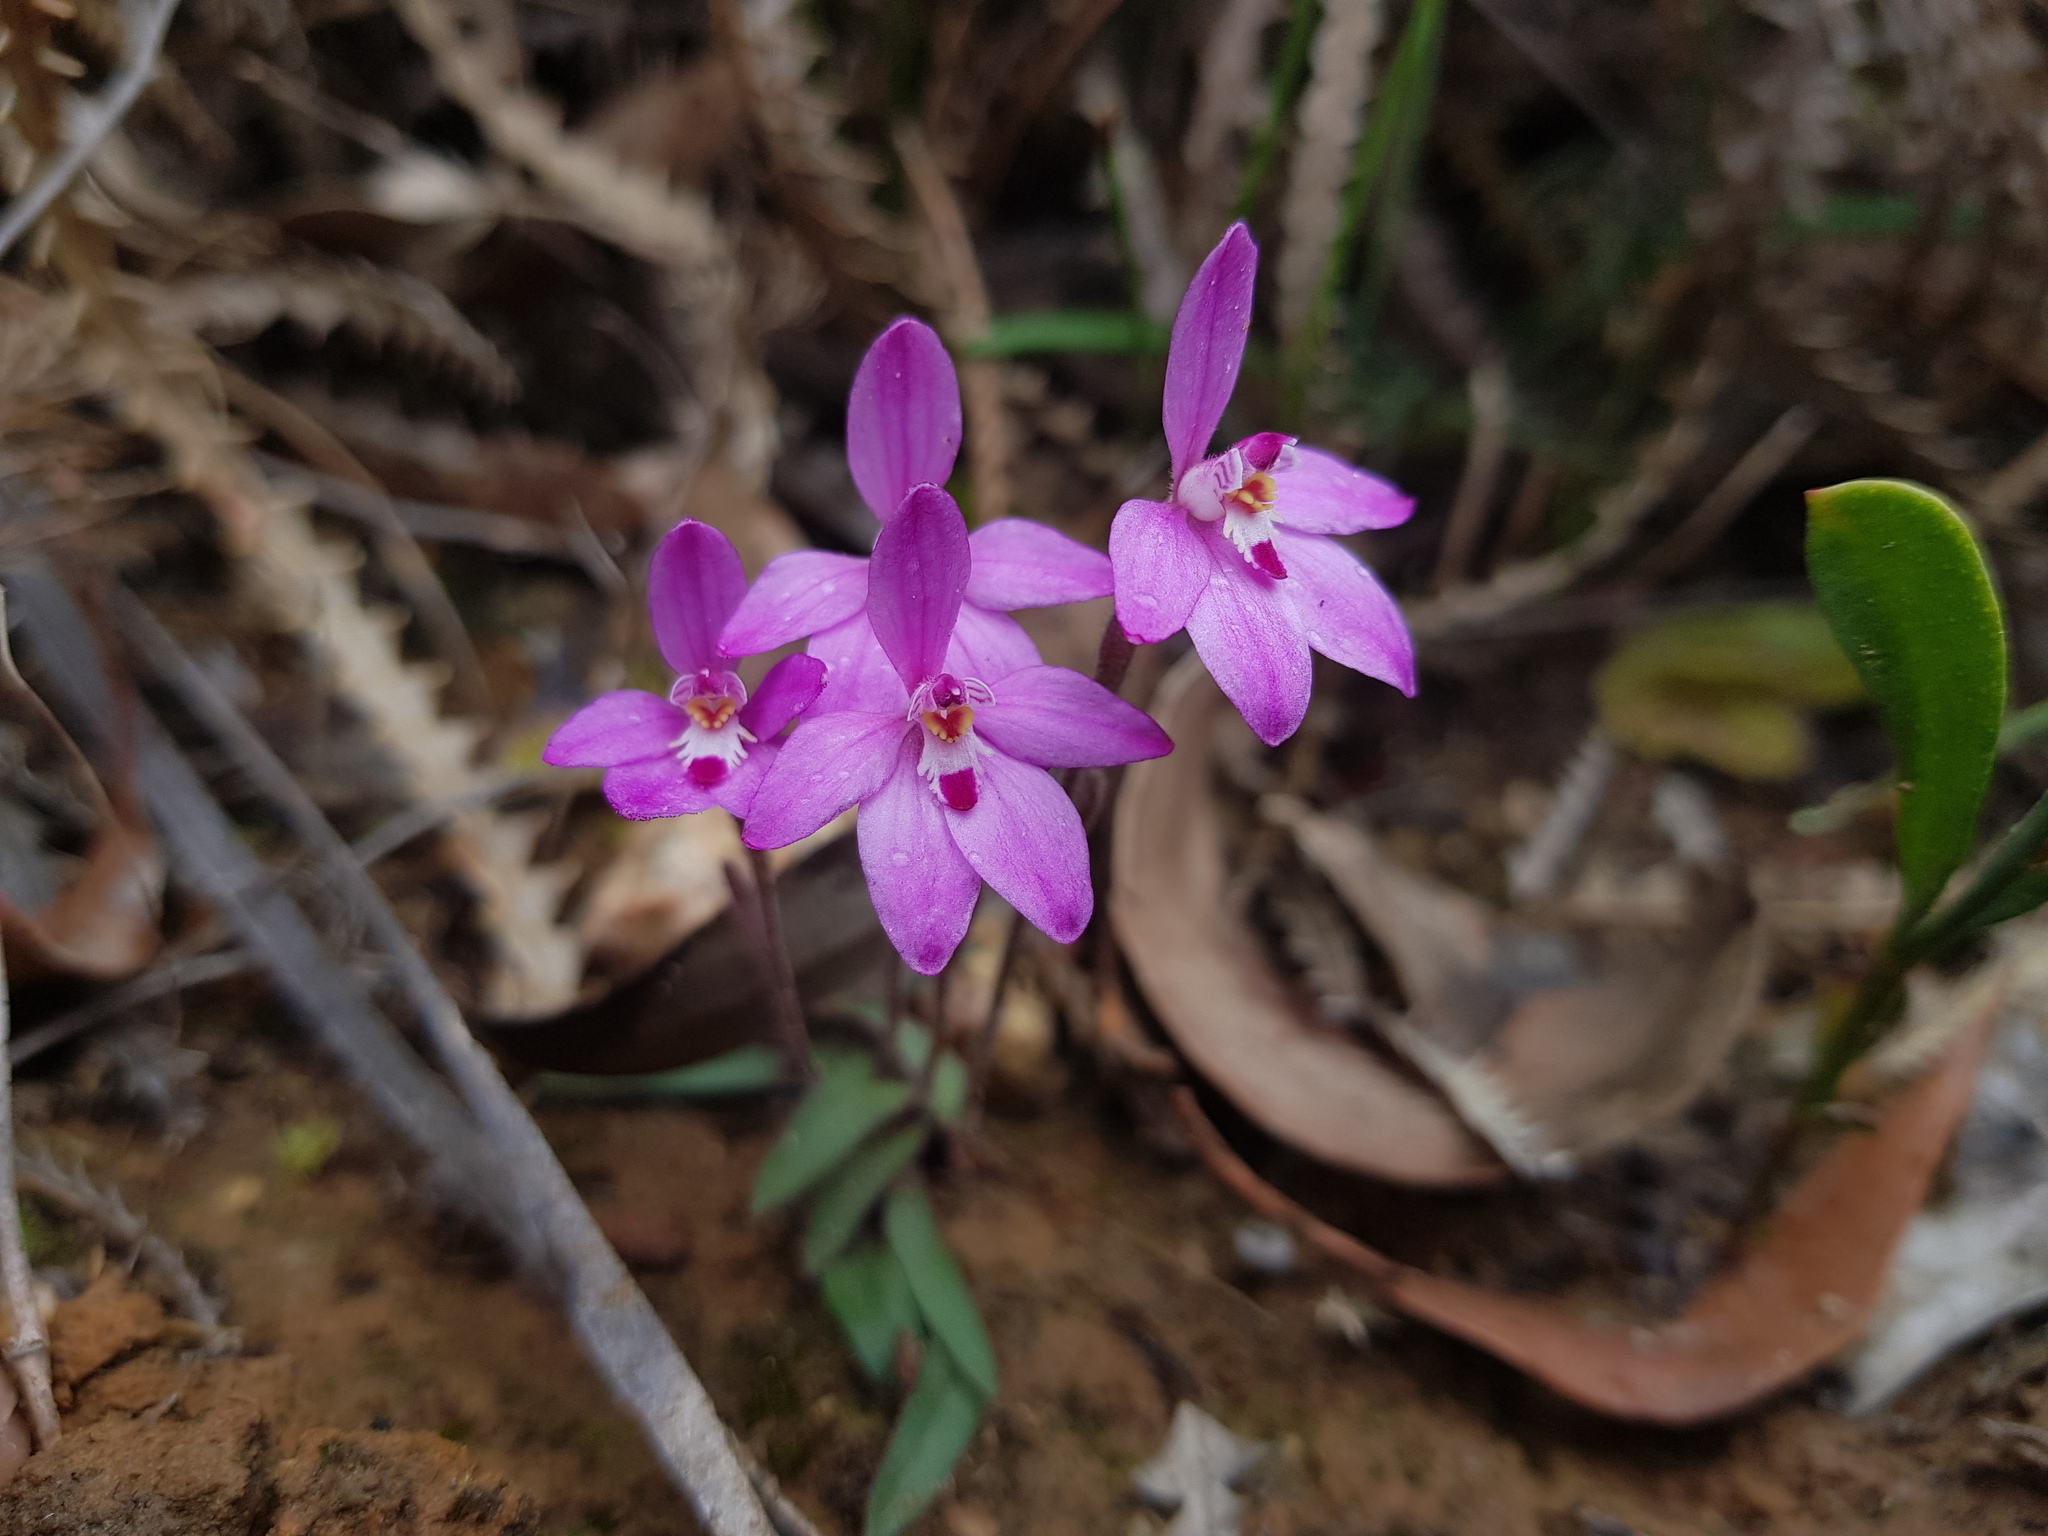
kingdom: Plantae
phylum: Tracheophyta
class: Liliopsida
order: Asparagales
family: Orchidaceae
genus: Caladenia
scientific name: Caladenia reptans
